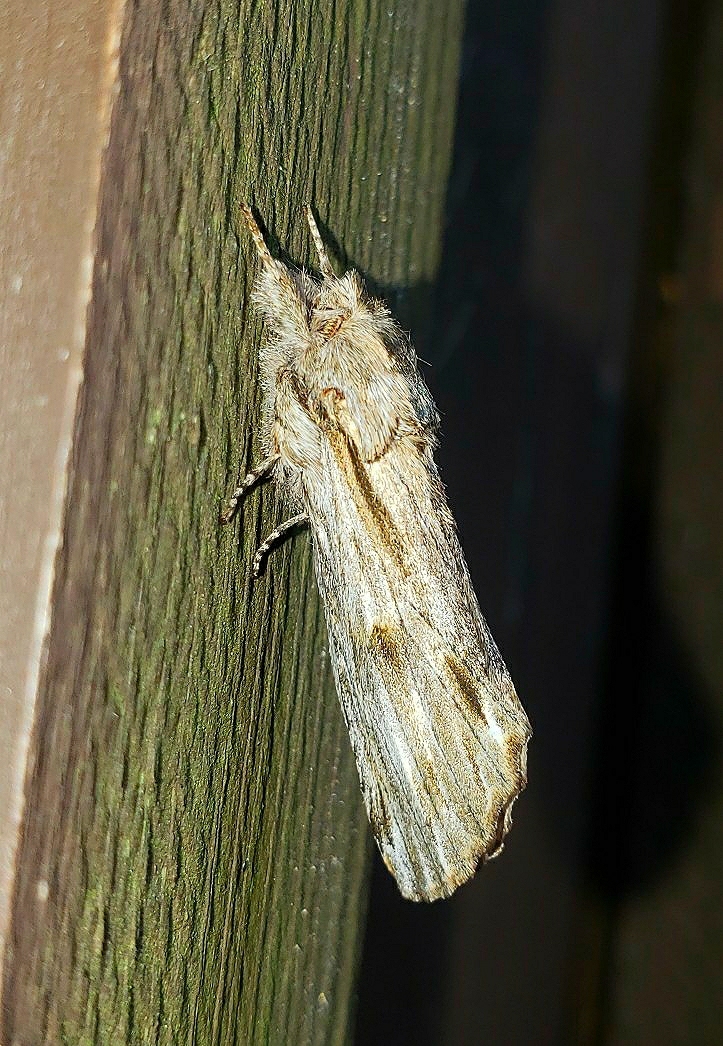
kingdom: Animalia
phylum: Arthropoda
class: Insecta
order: Lepidoptera
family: Notodontidae
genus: Oligocentria
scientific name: Oligocentria Ianassa lignicolor
